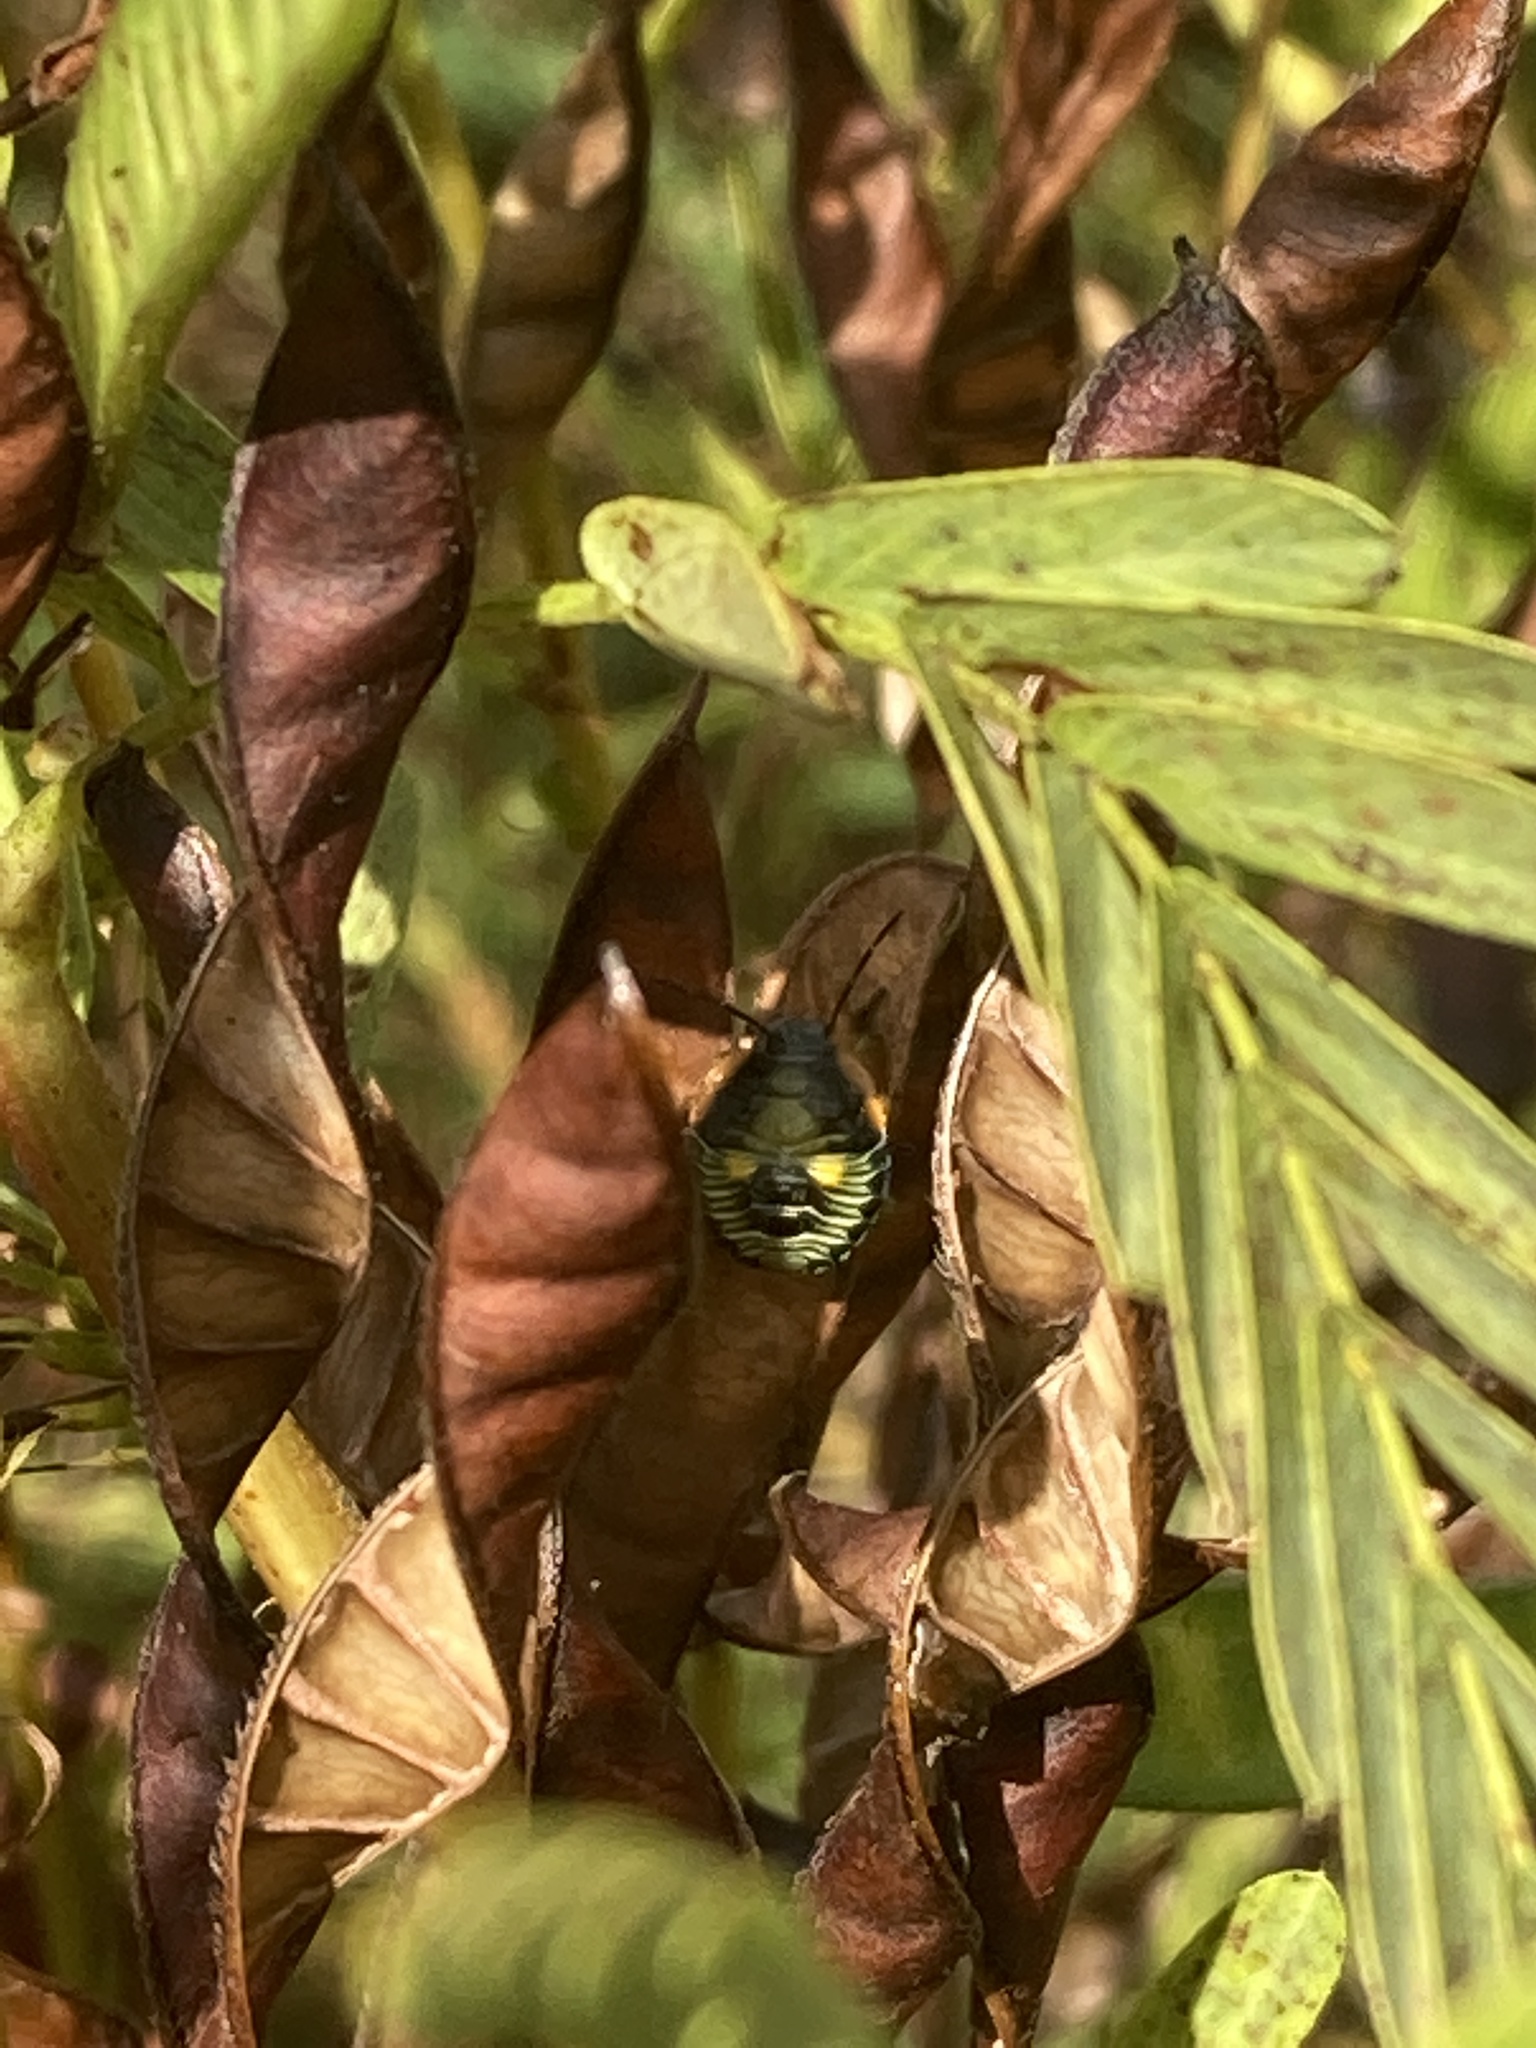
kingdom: Animalia
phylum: Arthropoda
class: Insecta
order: Hemiptera
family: Pentatomidae
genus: Chinavia
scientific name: Chinavia hilaris
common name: Green stink bug
